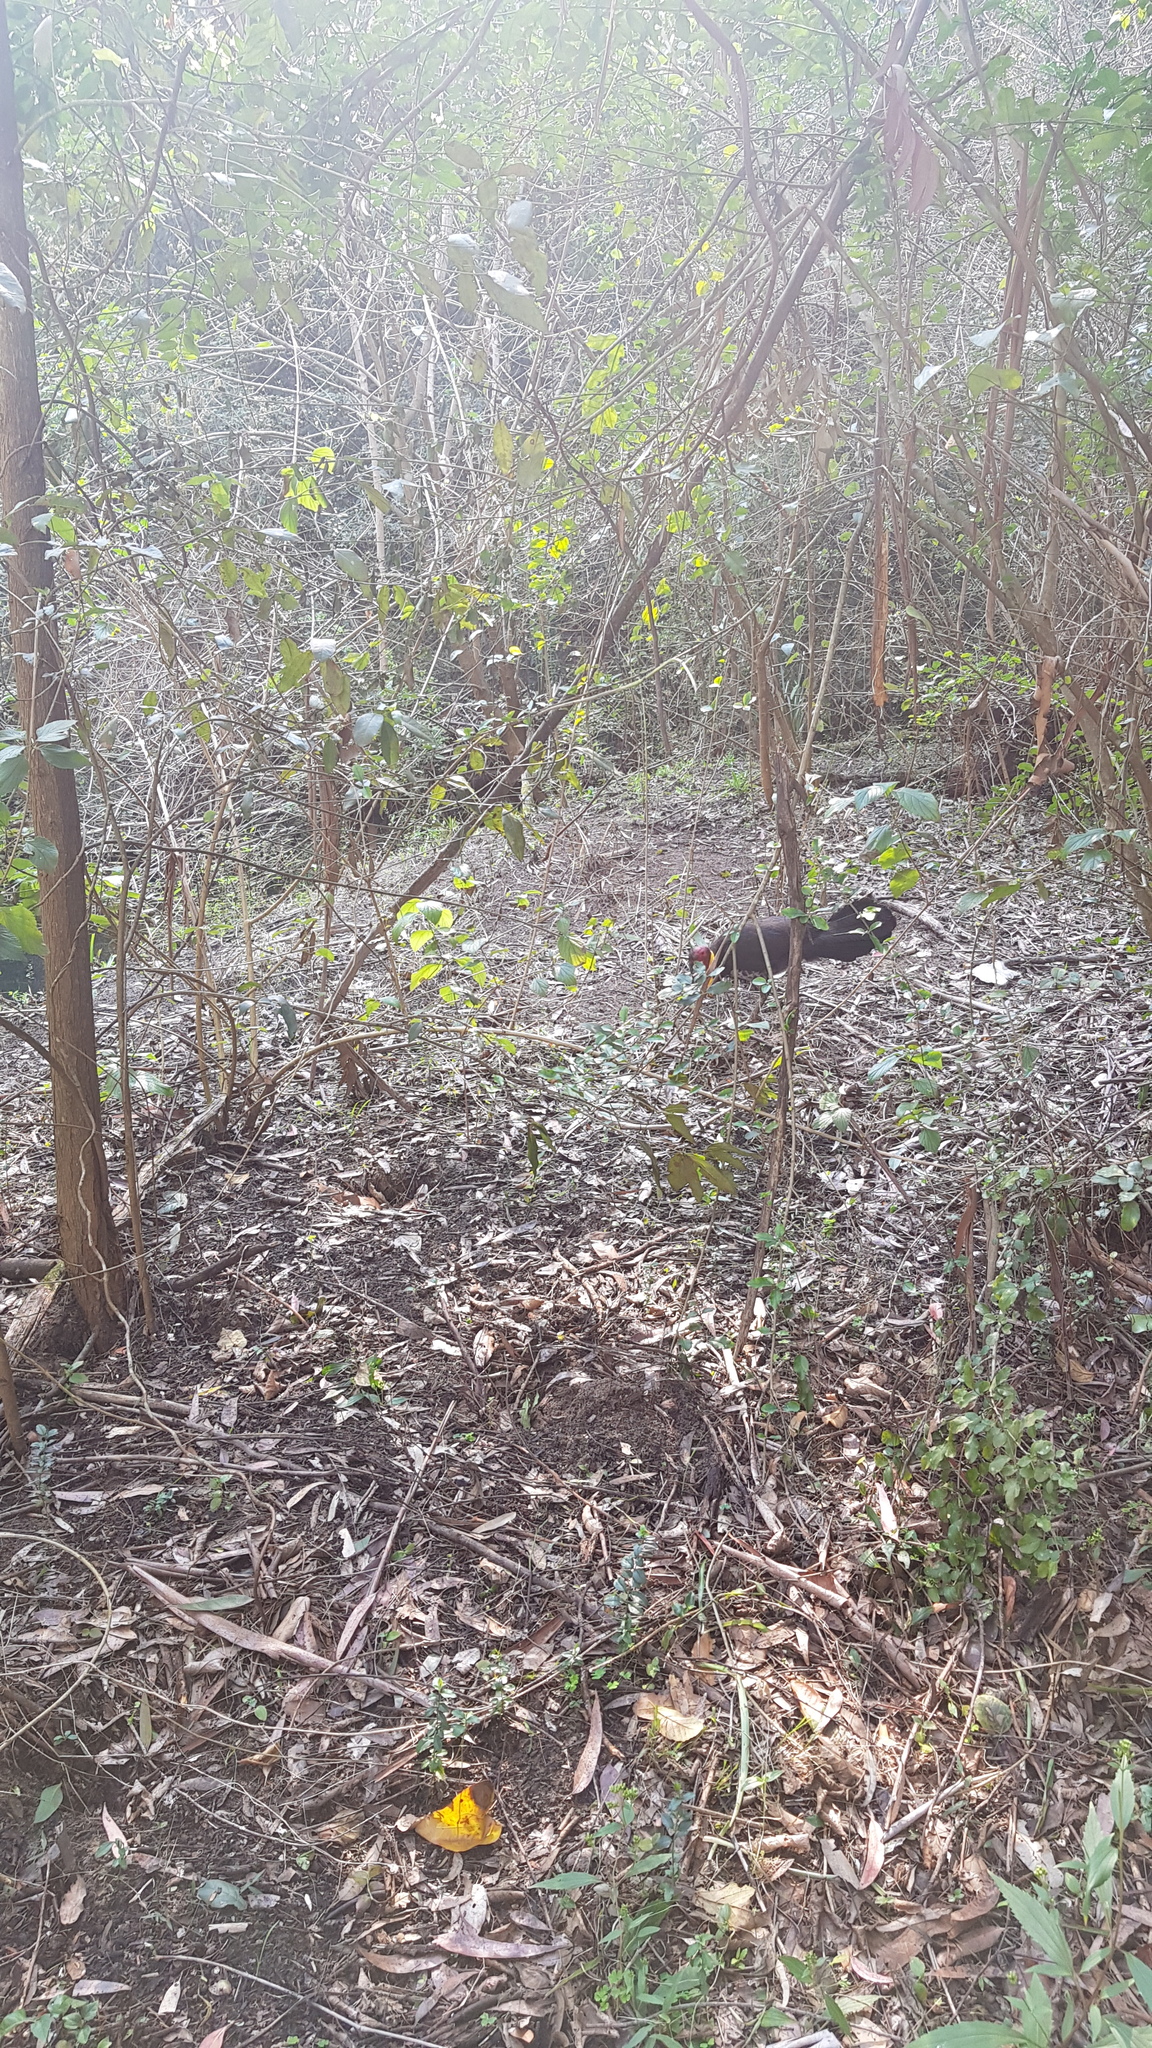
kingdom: Animalia
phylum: Chordata
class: Aves
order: Galliformes
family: Megapodiidae
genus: Alectura
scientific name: Alectura lathami
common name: Australian brushturkey
